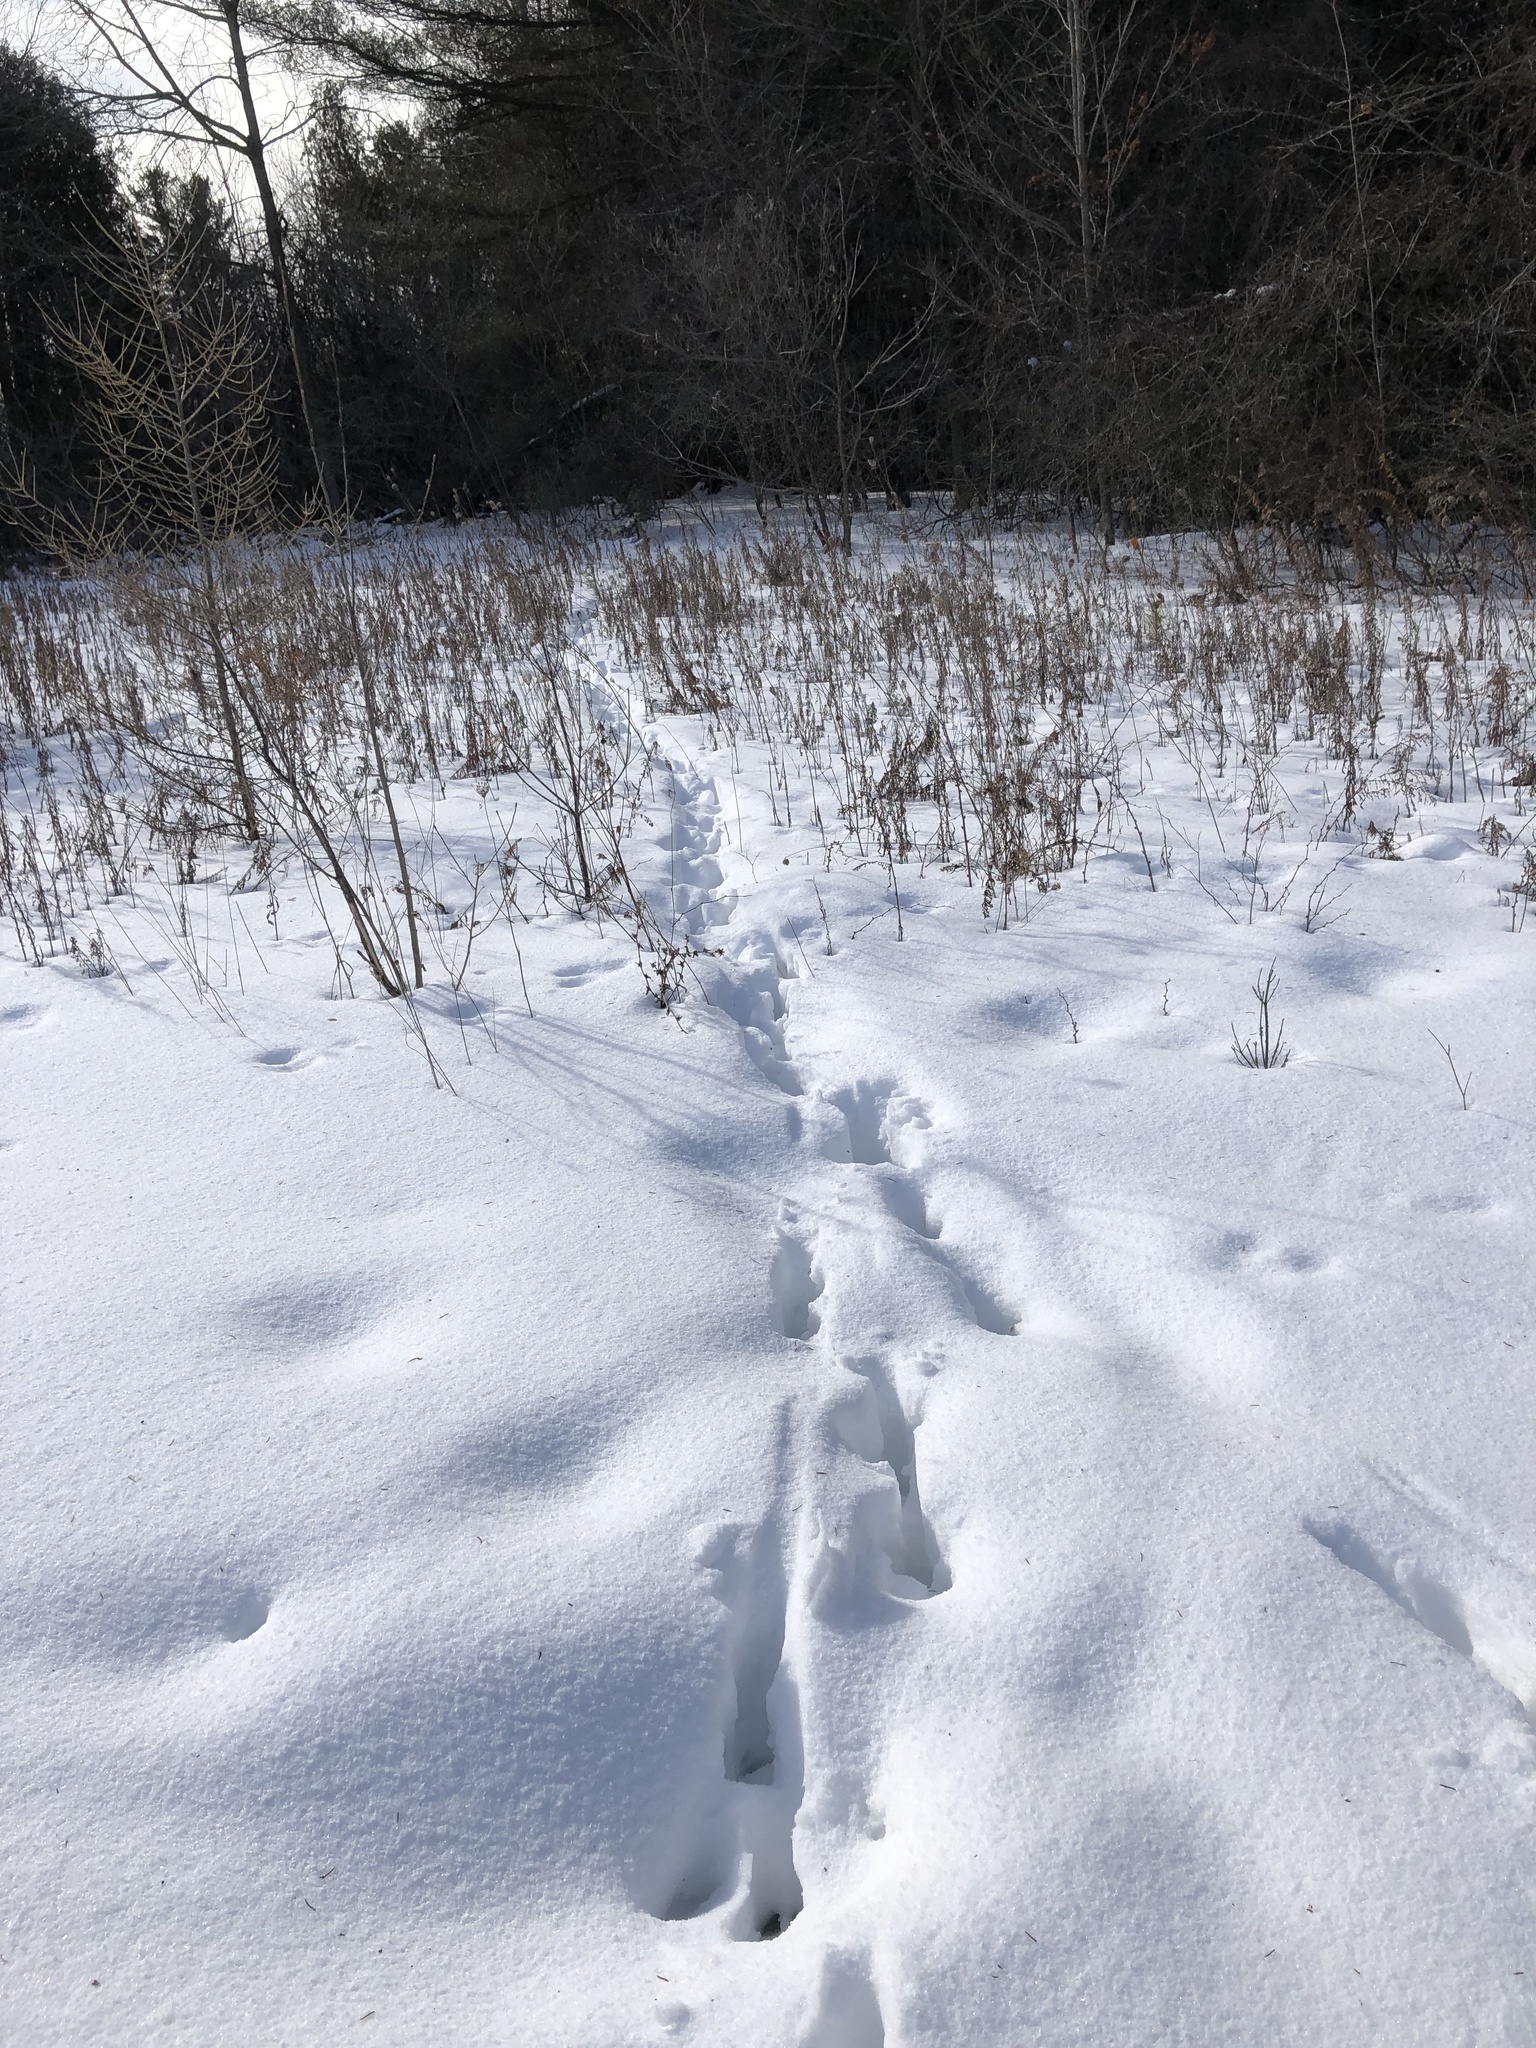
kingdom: Animalia
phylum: Chordata
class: Mammalia
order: Artiodactyla
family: Cervidae
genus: Odocoileus
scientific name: Odocoileus virginianus
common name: White-tailed deer
